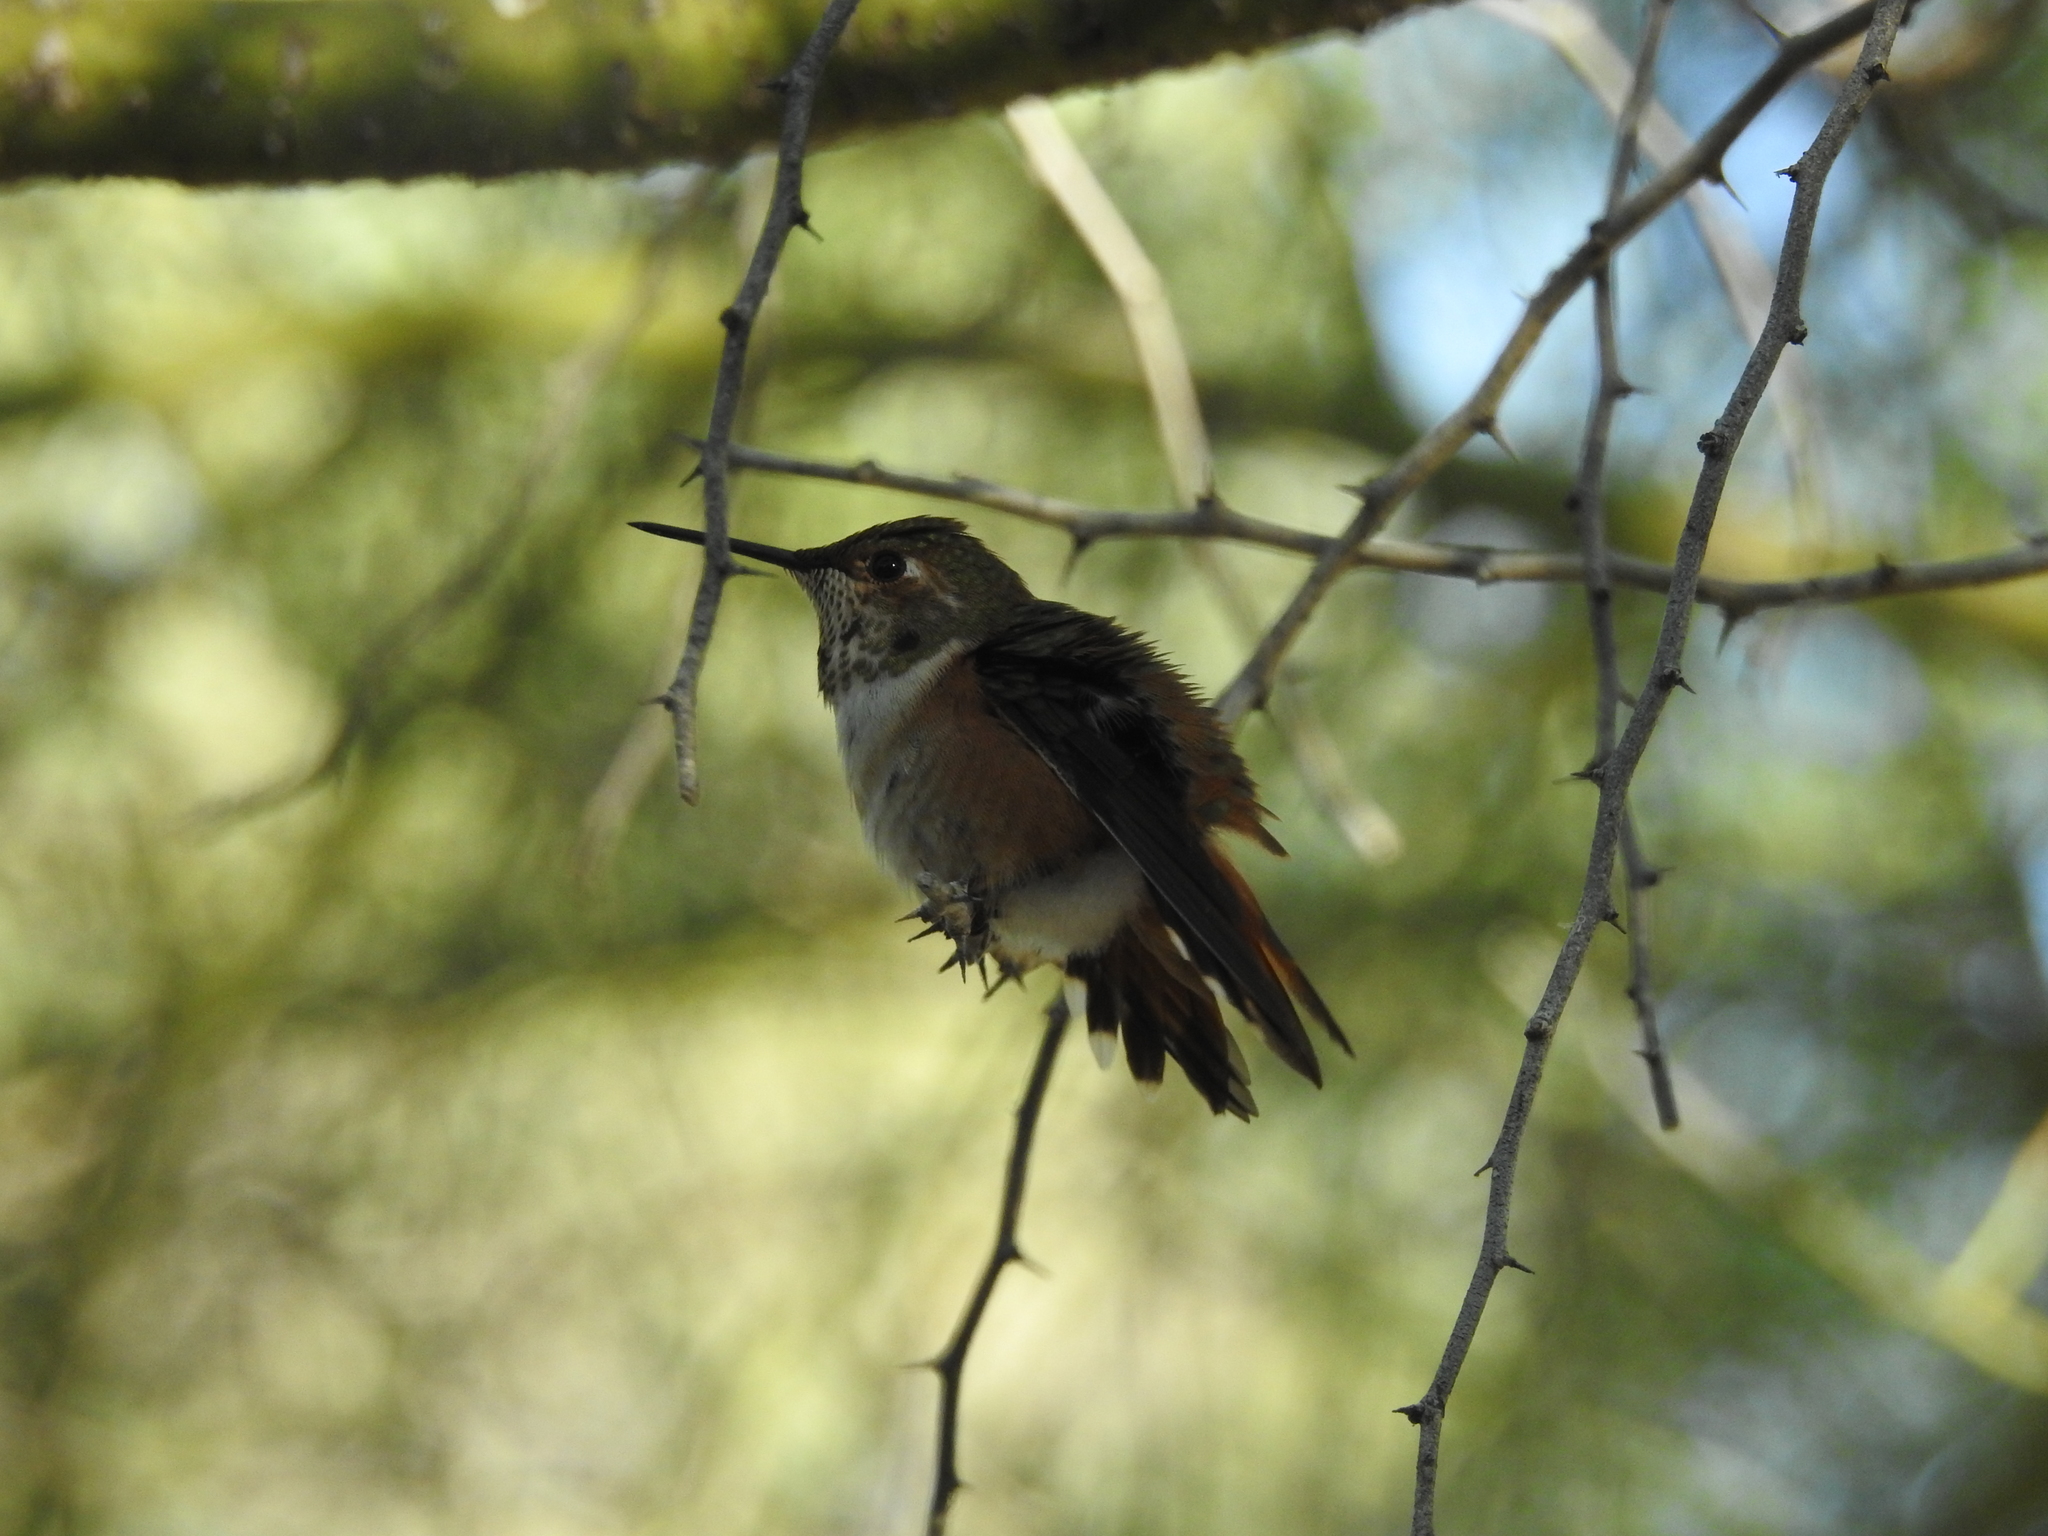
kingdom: Animalia
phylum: Chordata
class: Aves
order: Apodiformes
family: Trochilidae
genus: Selasphorus
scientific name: Selasphorus rufus
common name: Rufous hummingbird
